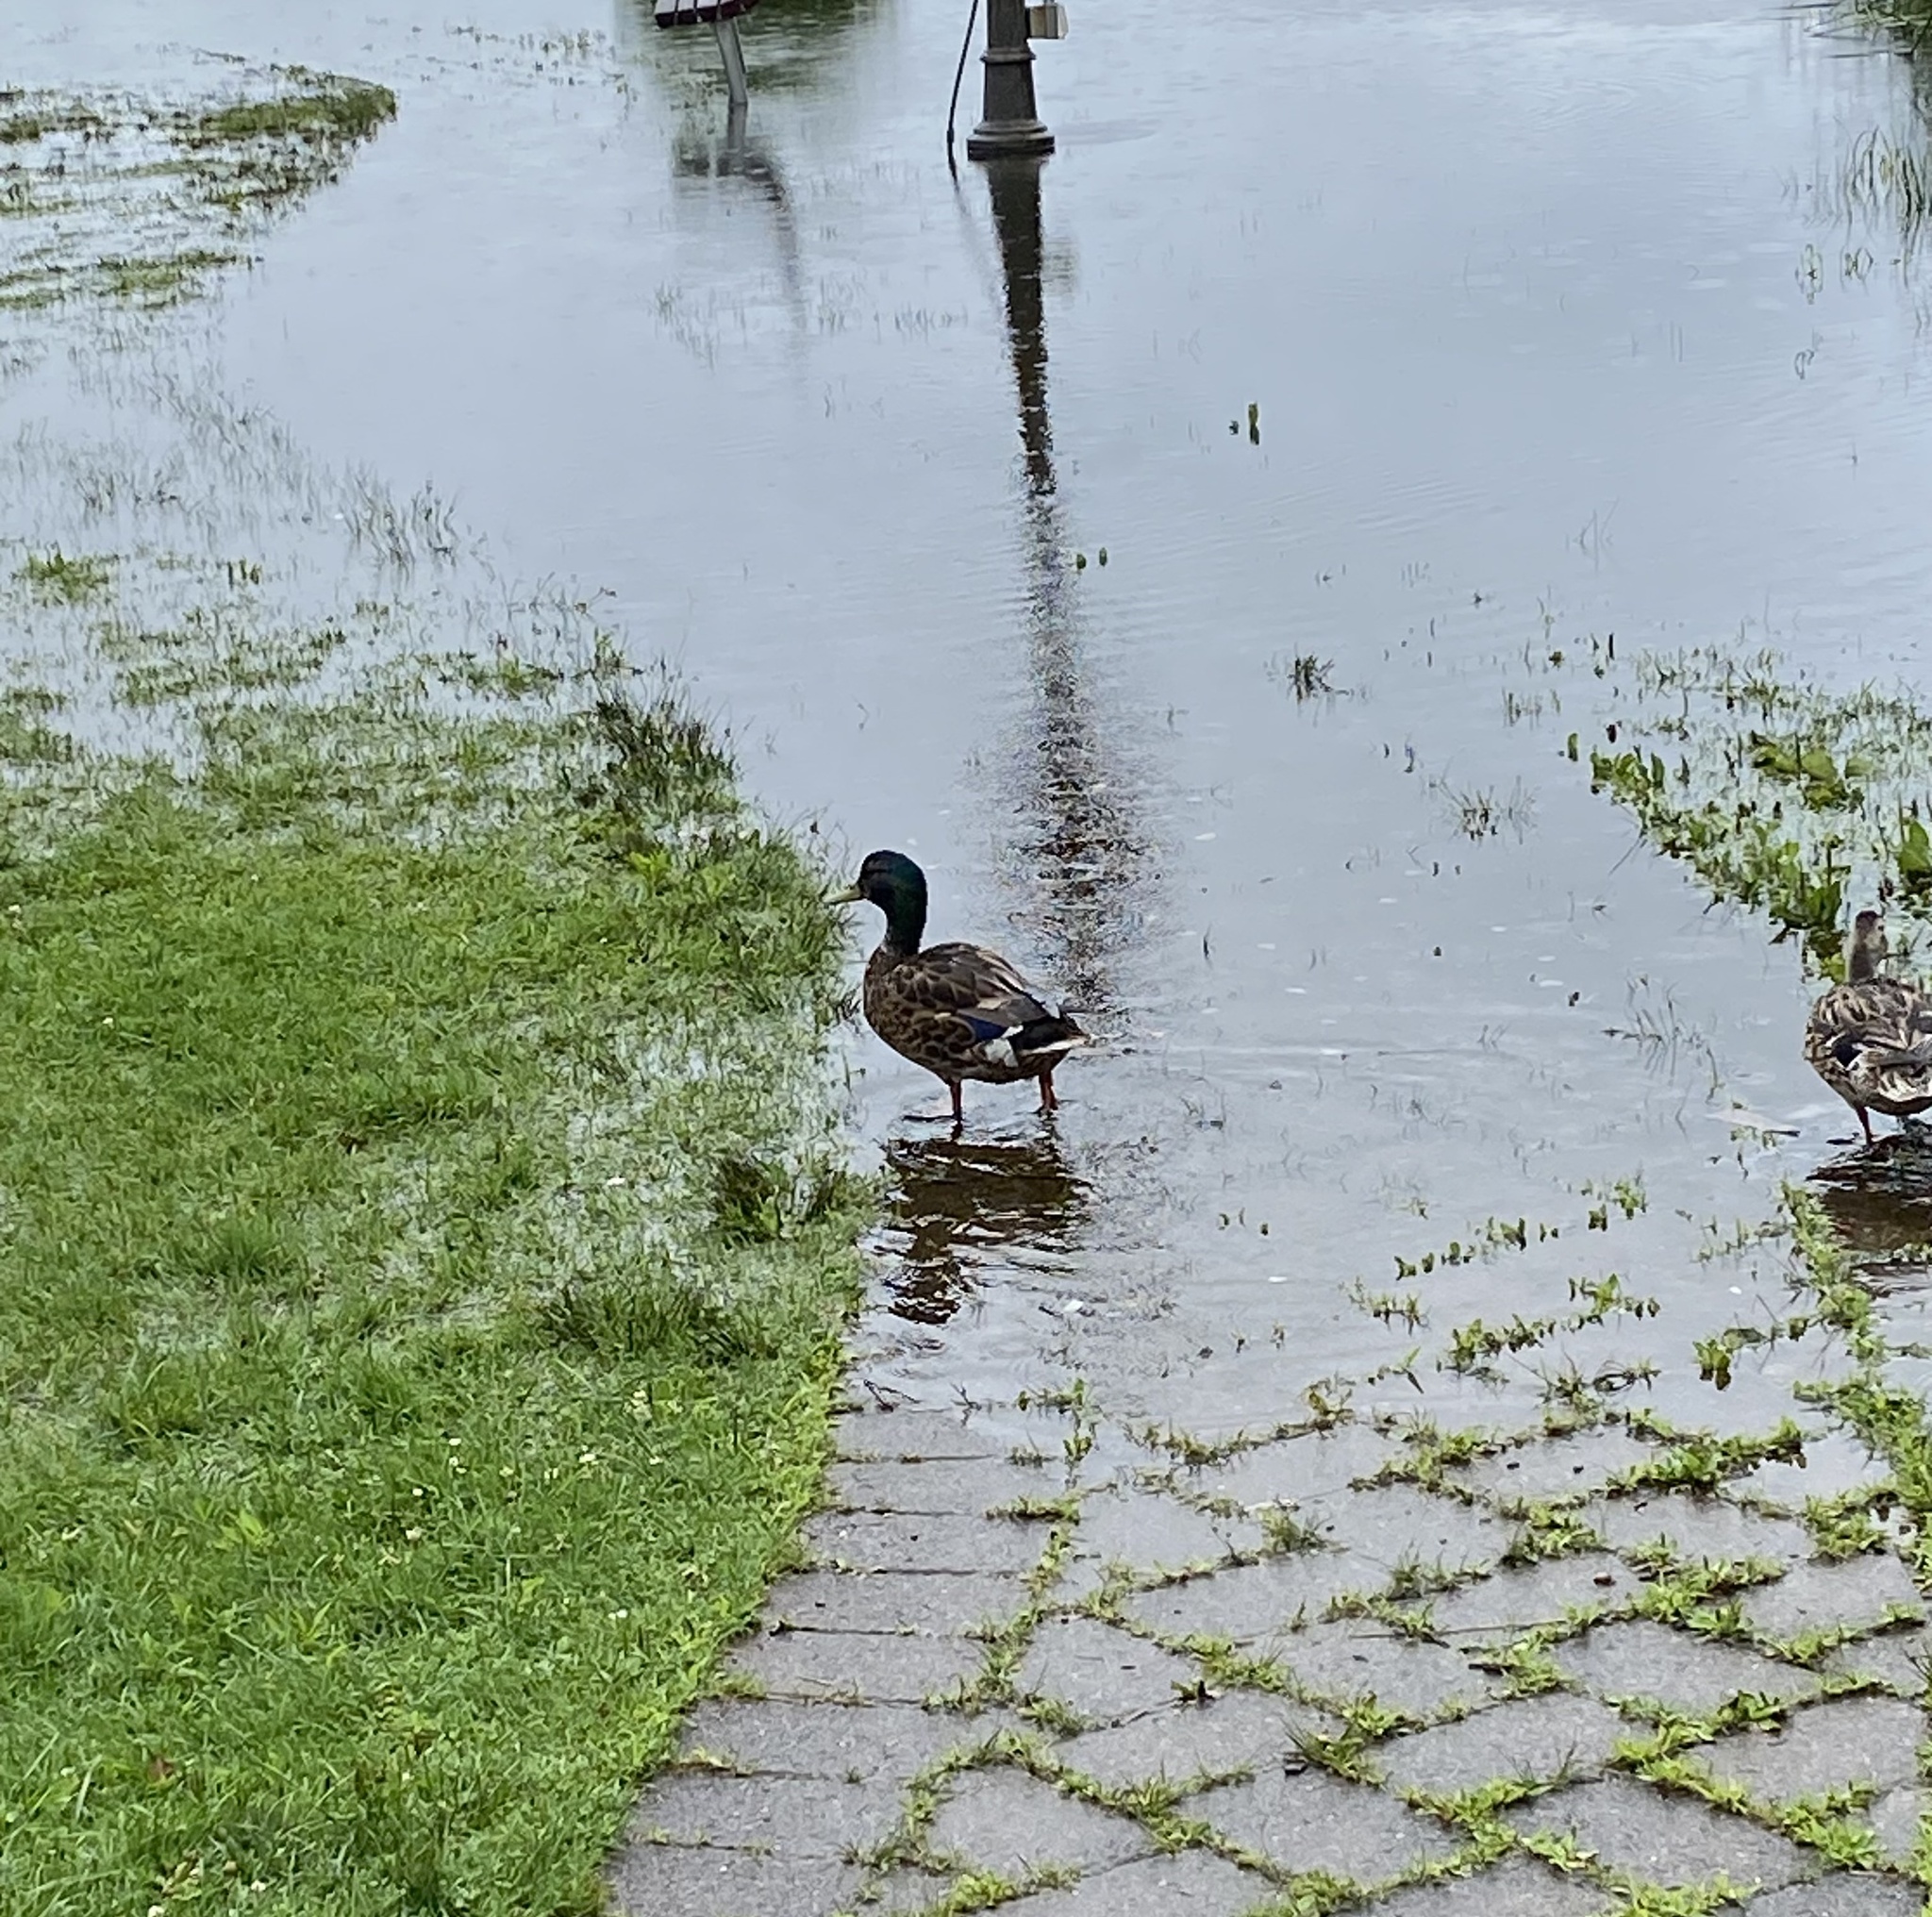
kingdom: Animalia
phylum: Chordata
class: Aves
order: Anseriformes
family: Anatidae
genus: Anas
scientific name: Anas platyrhynchos
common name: Mallard
